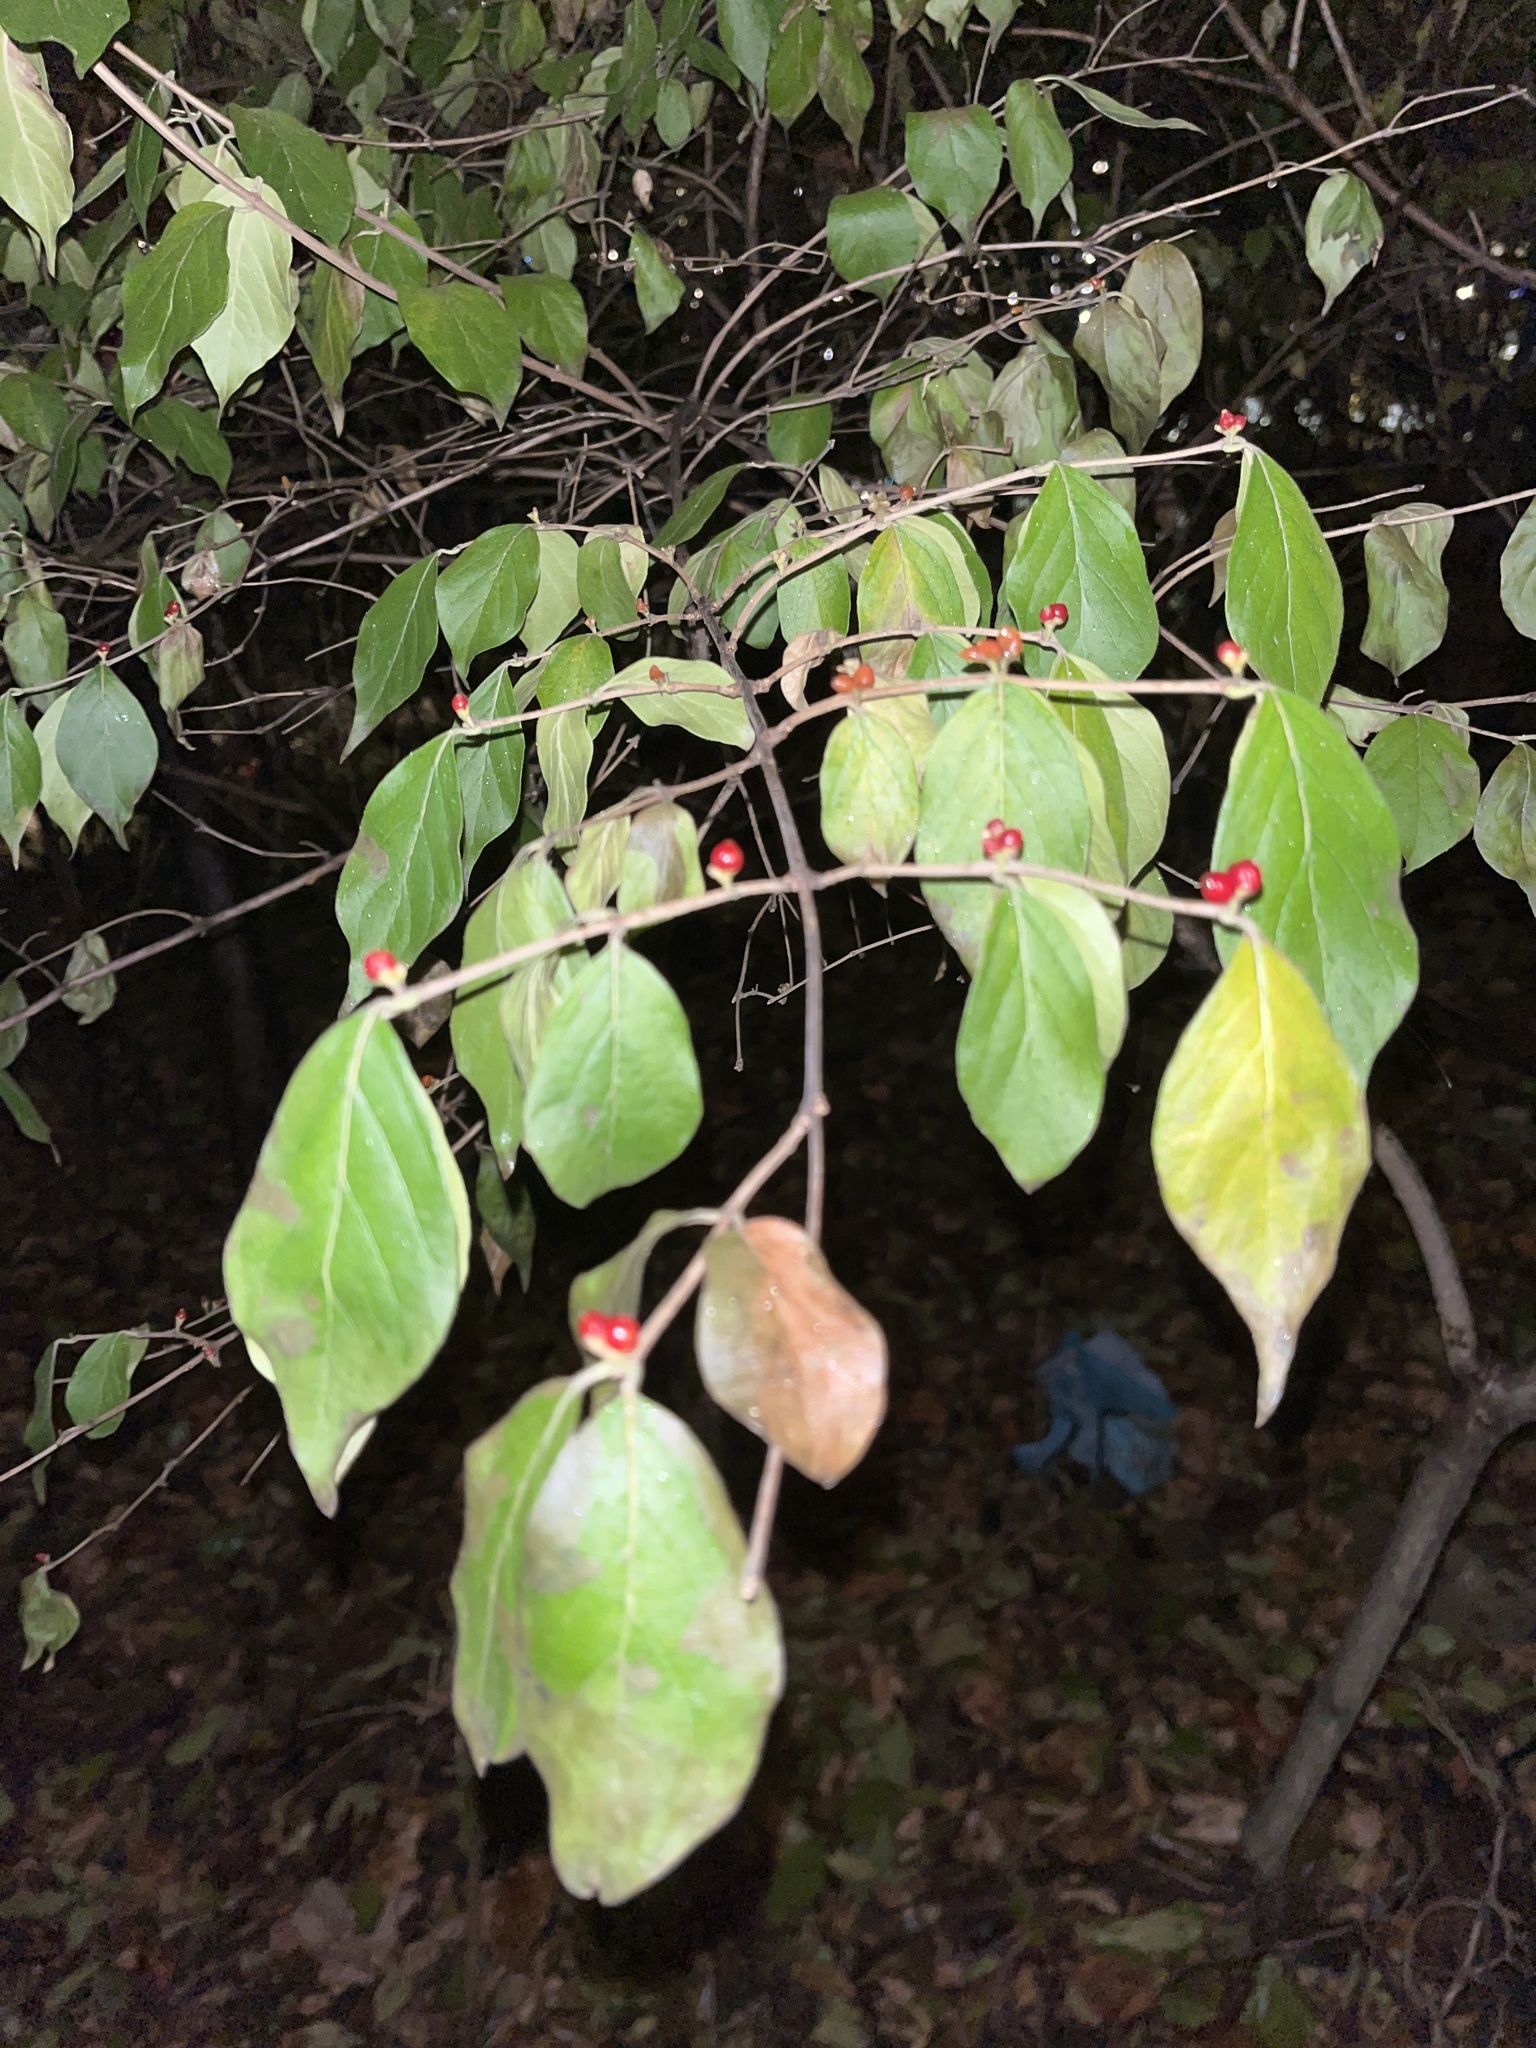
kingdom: Plantae
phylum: Tracheophyta
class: Magnoliopsida
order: Dipsacales
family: Caprifoliaceae
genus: Lonicera
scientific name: Lonicera maackii
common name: Amur honeysuckle
